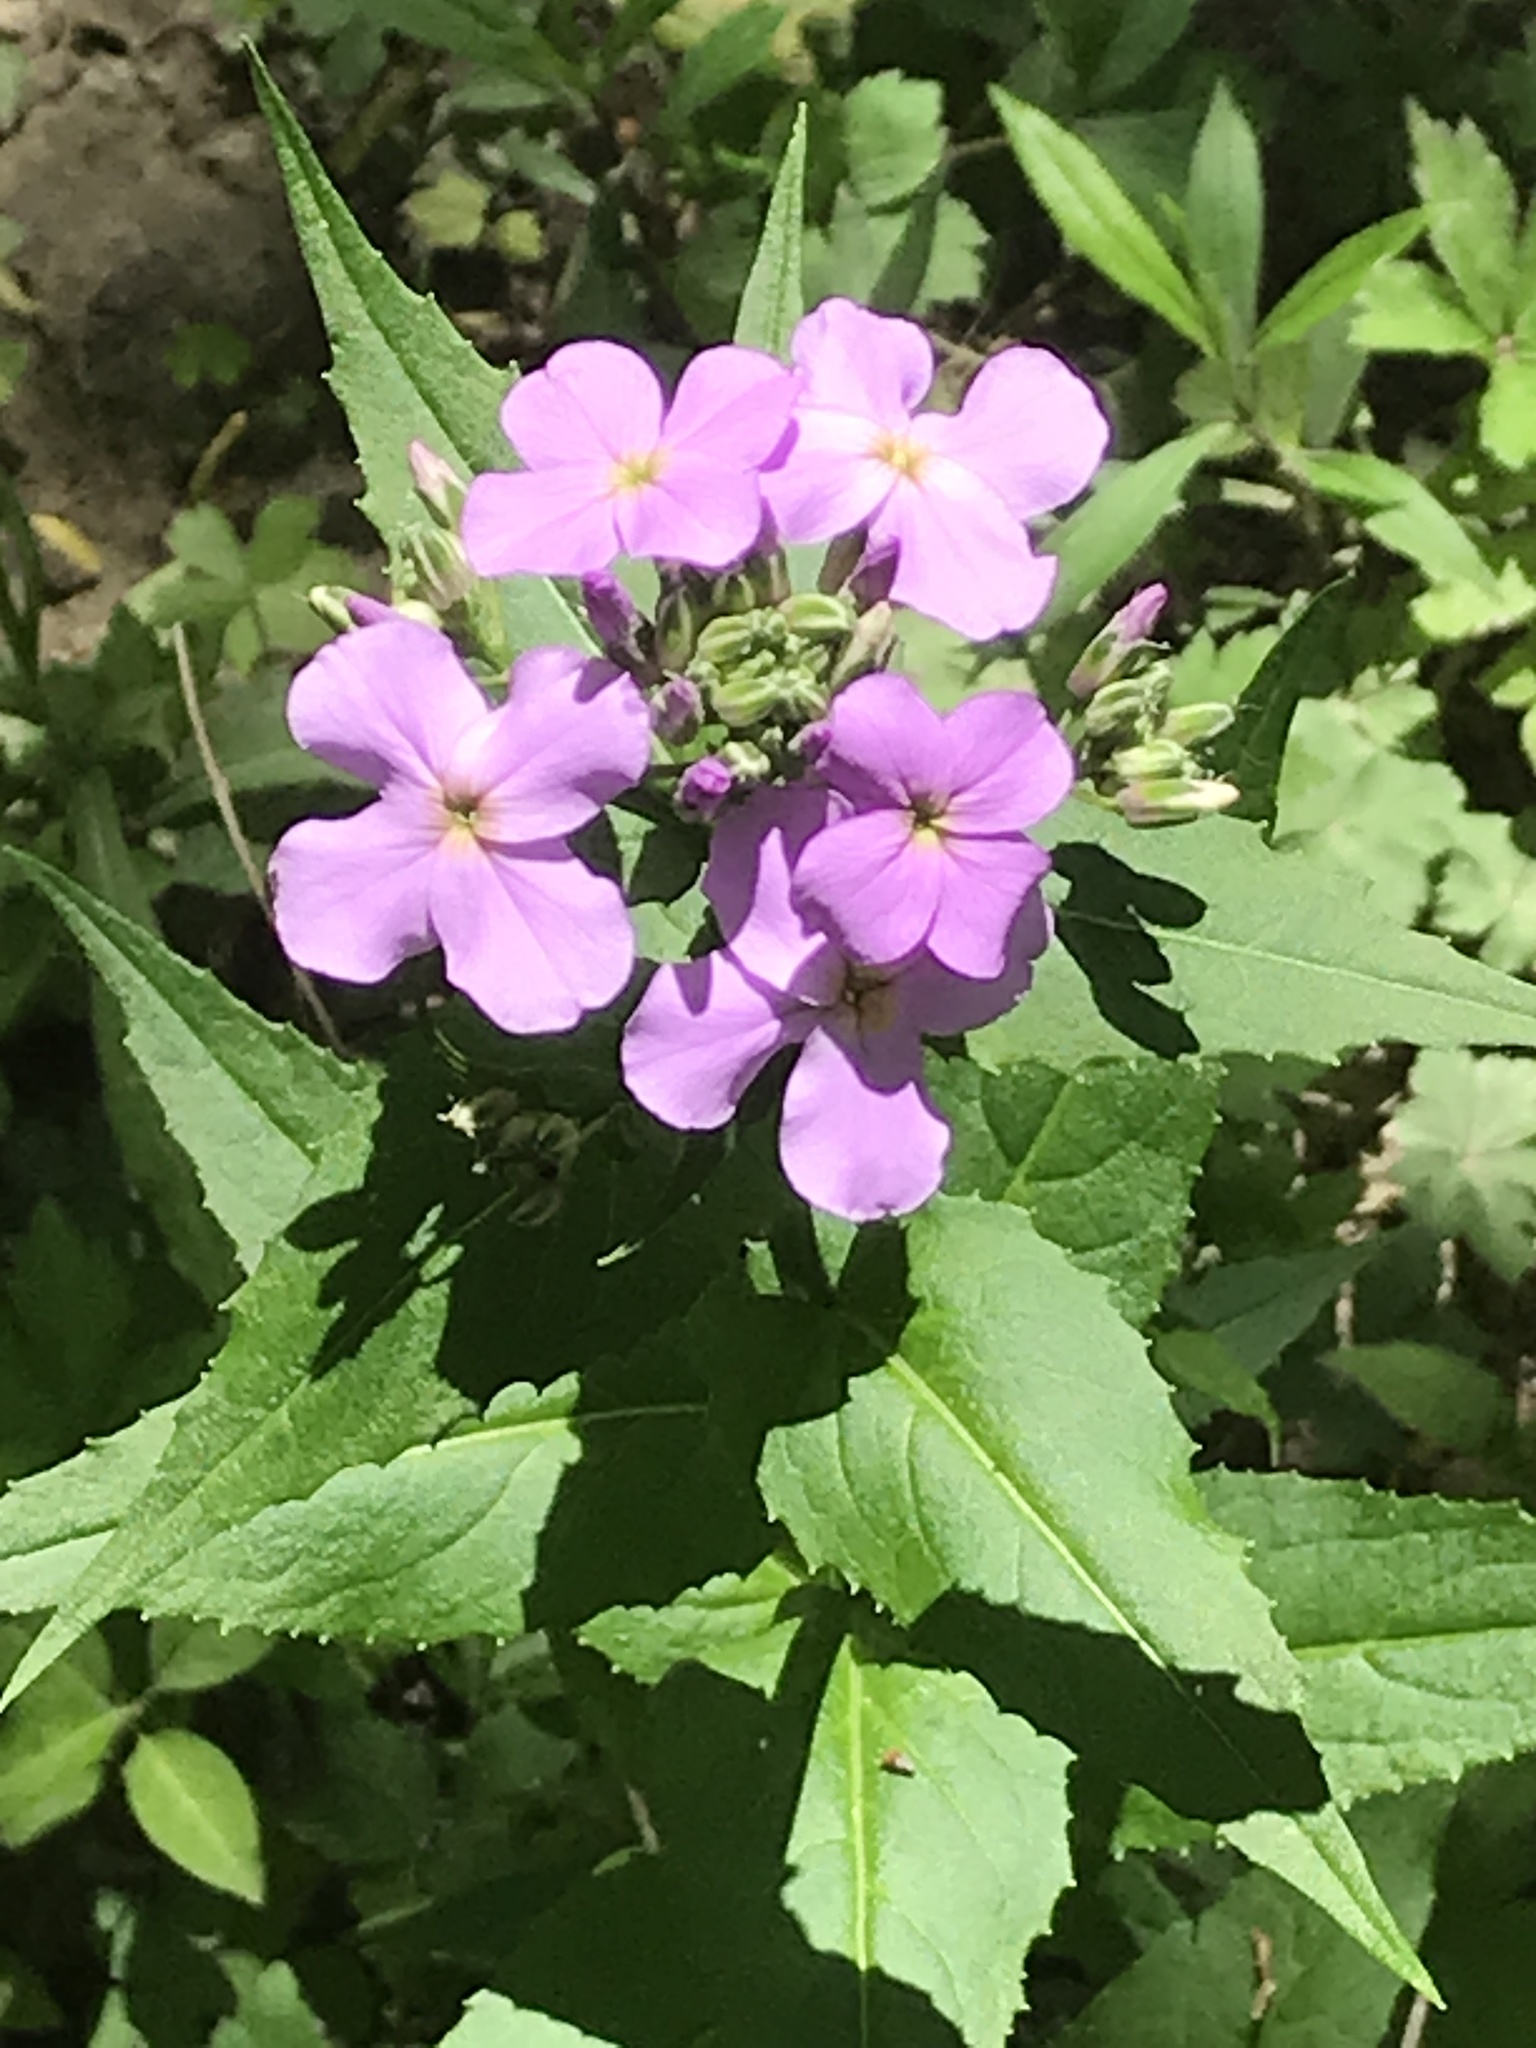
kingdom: Plantae
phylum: Tracheophyta
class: Magnoliopsida
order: Brassicales
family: Brassicaceae
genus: Hesperis
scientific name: Hesperis matronalis
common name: Dame's-violet
